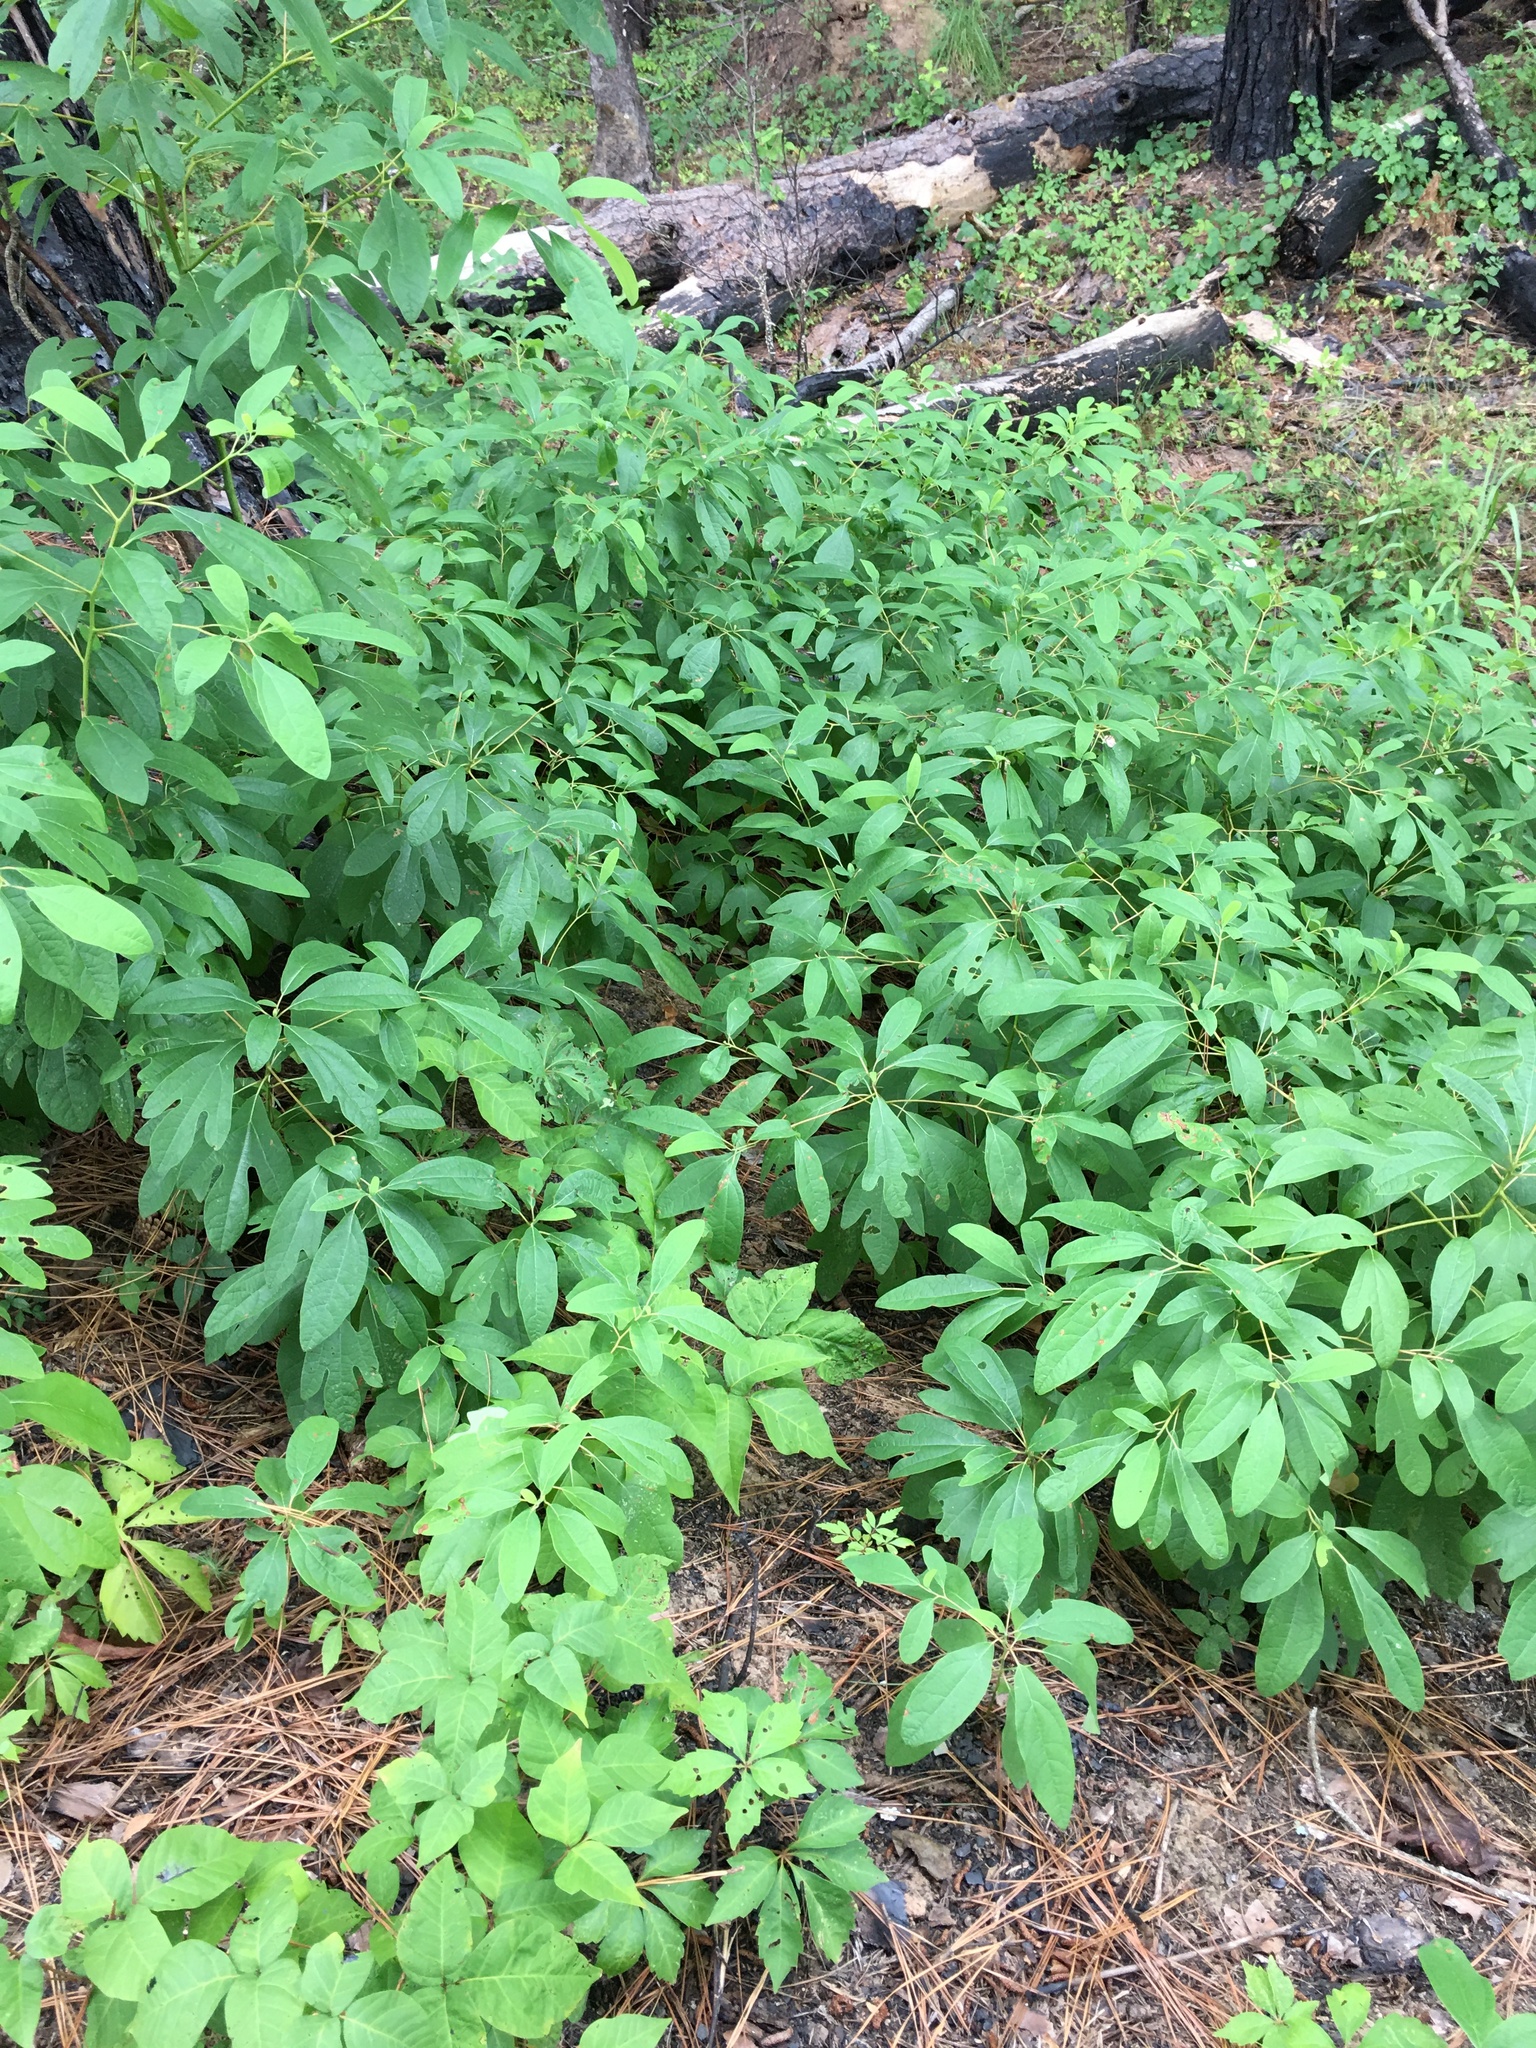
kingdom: Plantae
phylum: Tracheophyta
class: Magnoliopsida
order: Laurales
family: Lauraceae
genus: Sassafras
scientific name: Sassafras albidum
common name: Sassafras
